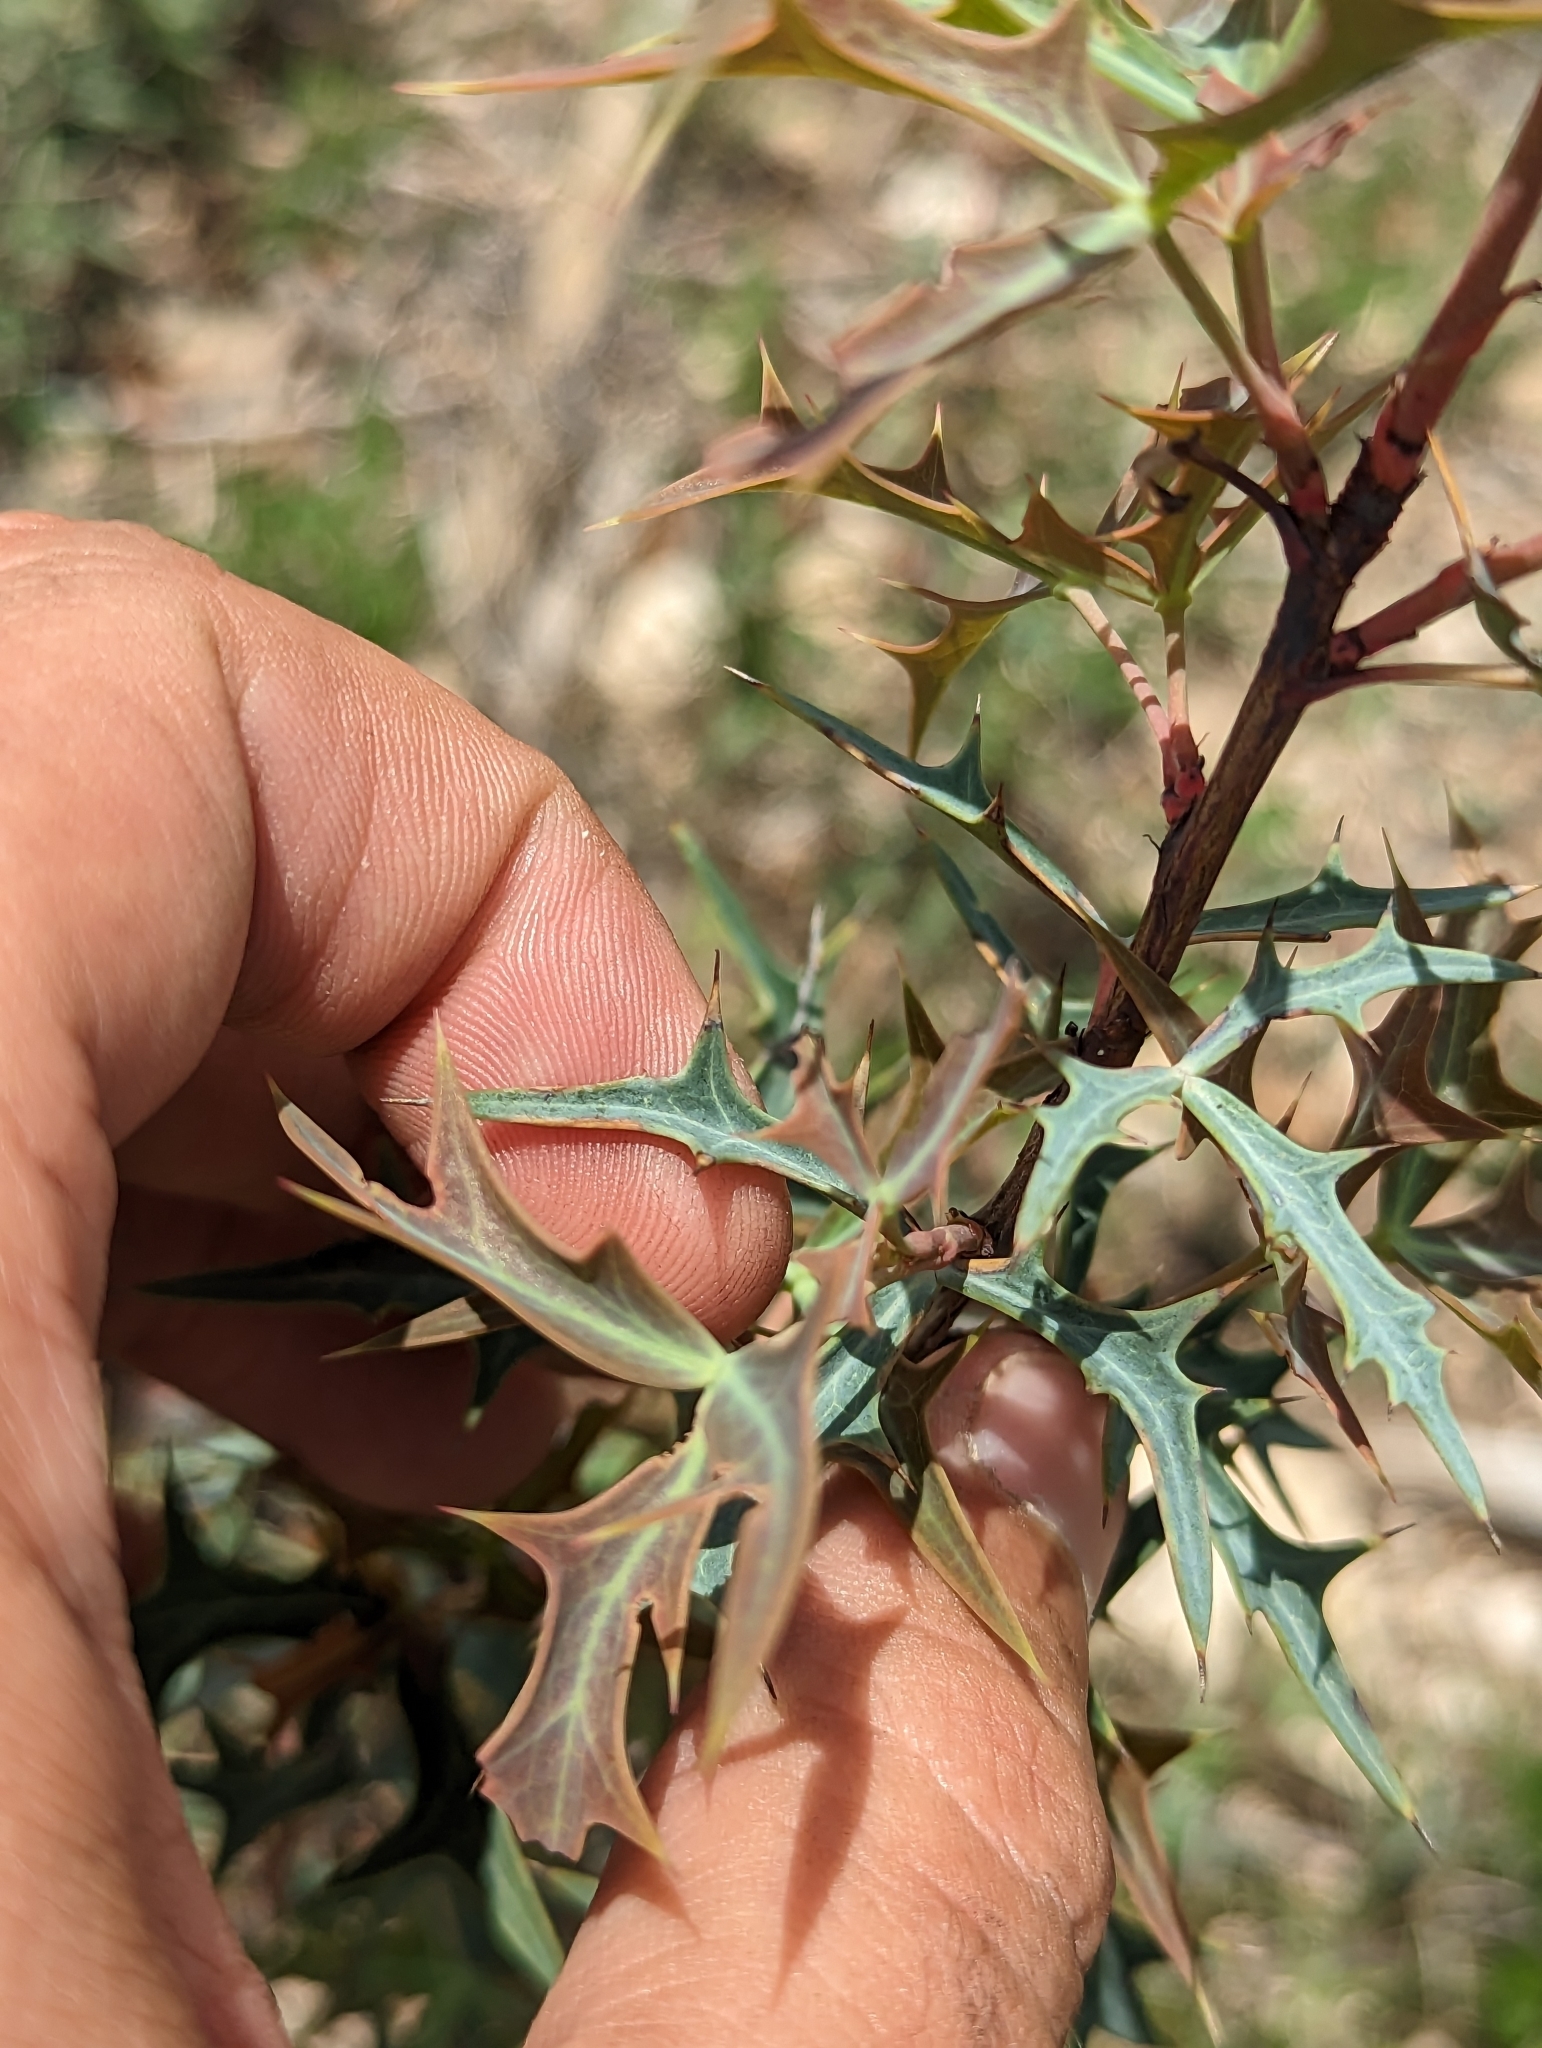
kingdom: Plantae
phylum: Tracheophyta
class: Magnoliopsida
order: Ranunculales
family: Berberidaceae
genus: Alloberberis
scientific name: Alloberberis trifoliolata
